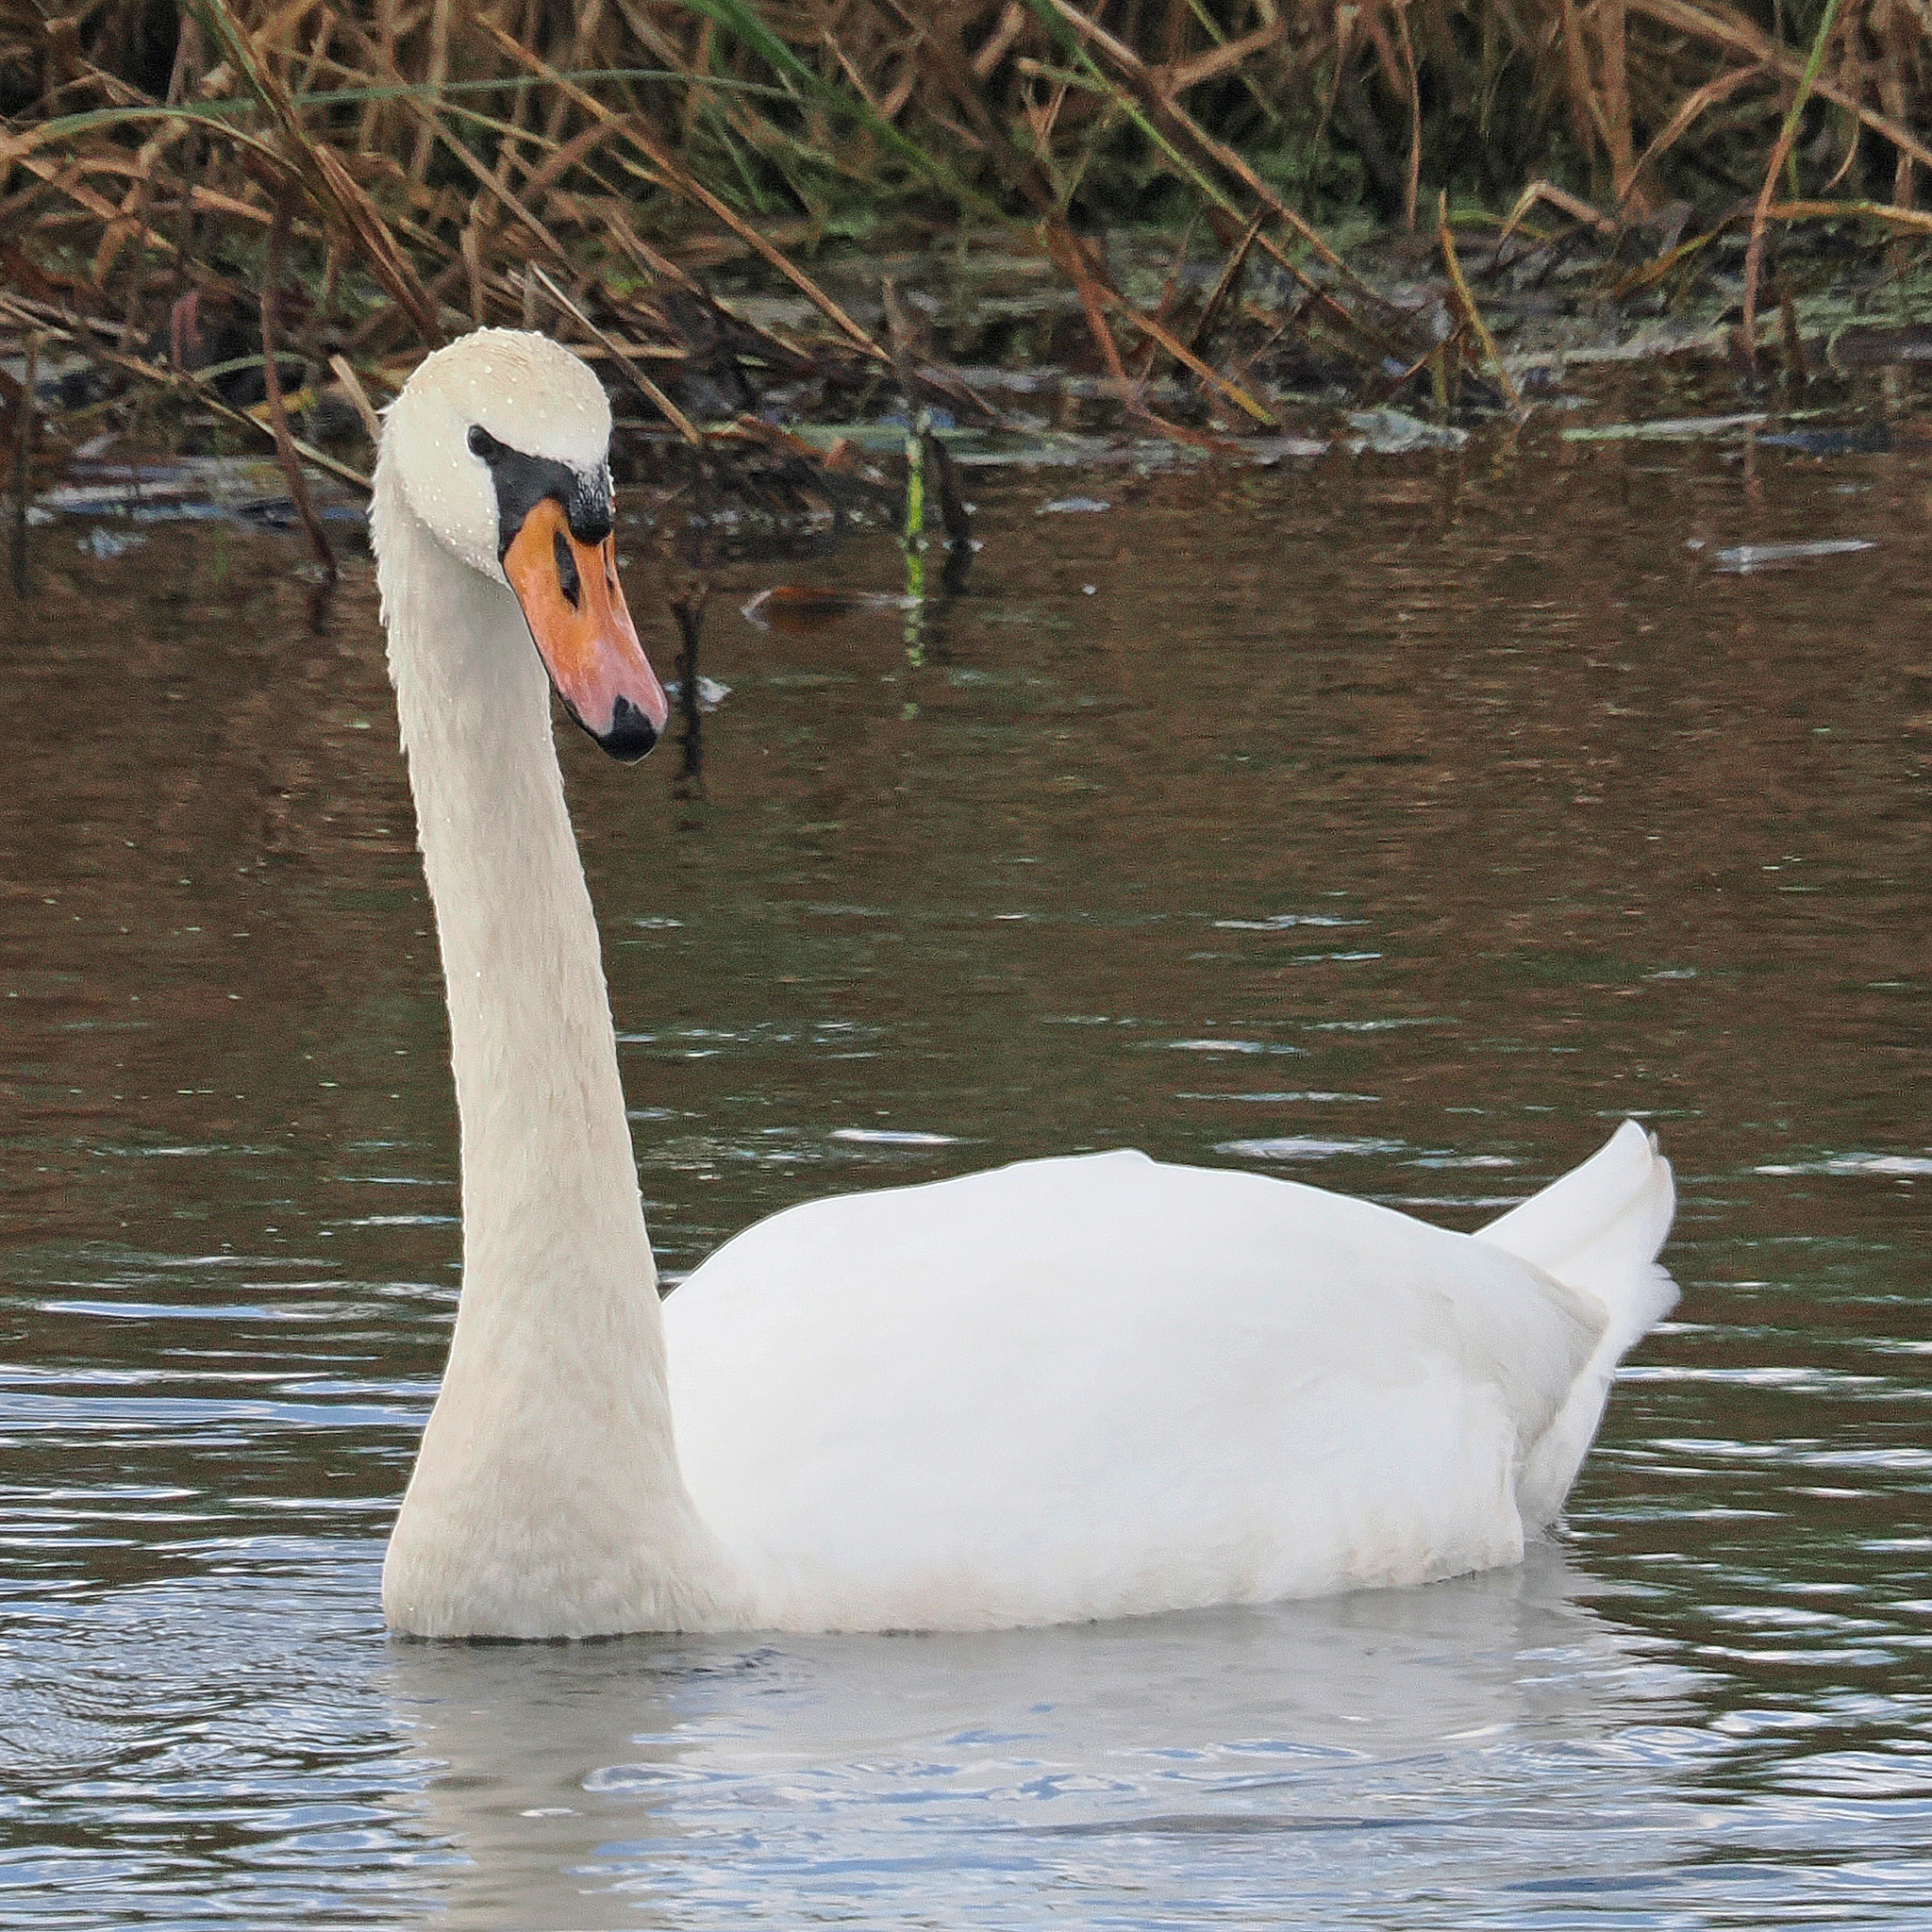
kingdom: Animalia
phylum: Chordata
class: Aves
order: Anseriformes
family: Anatidae
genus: Cygnus
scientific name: Cygnus olor
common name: Mute swan
